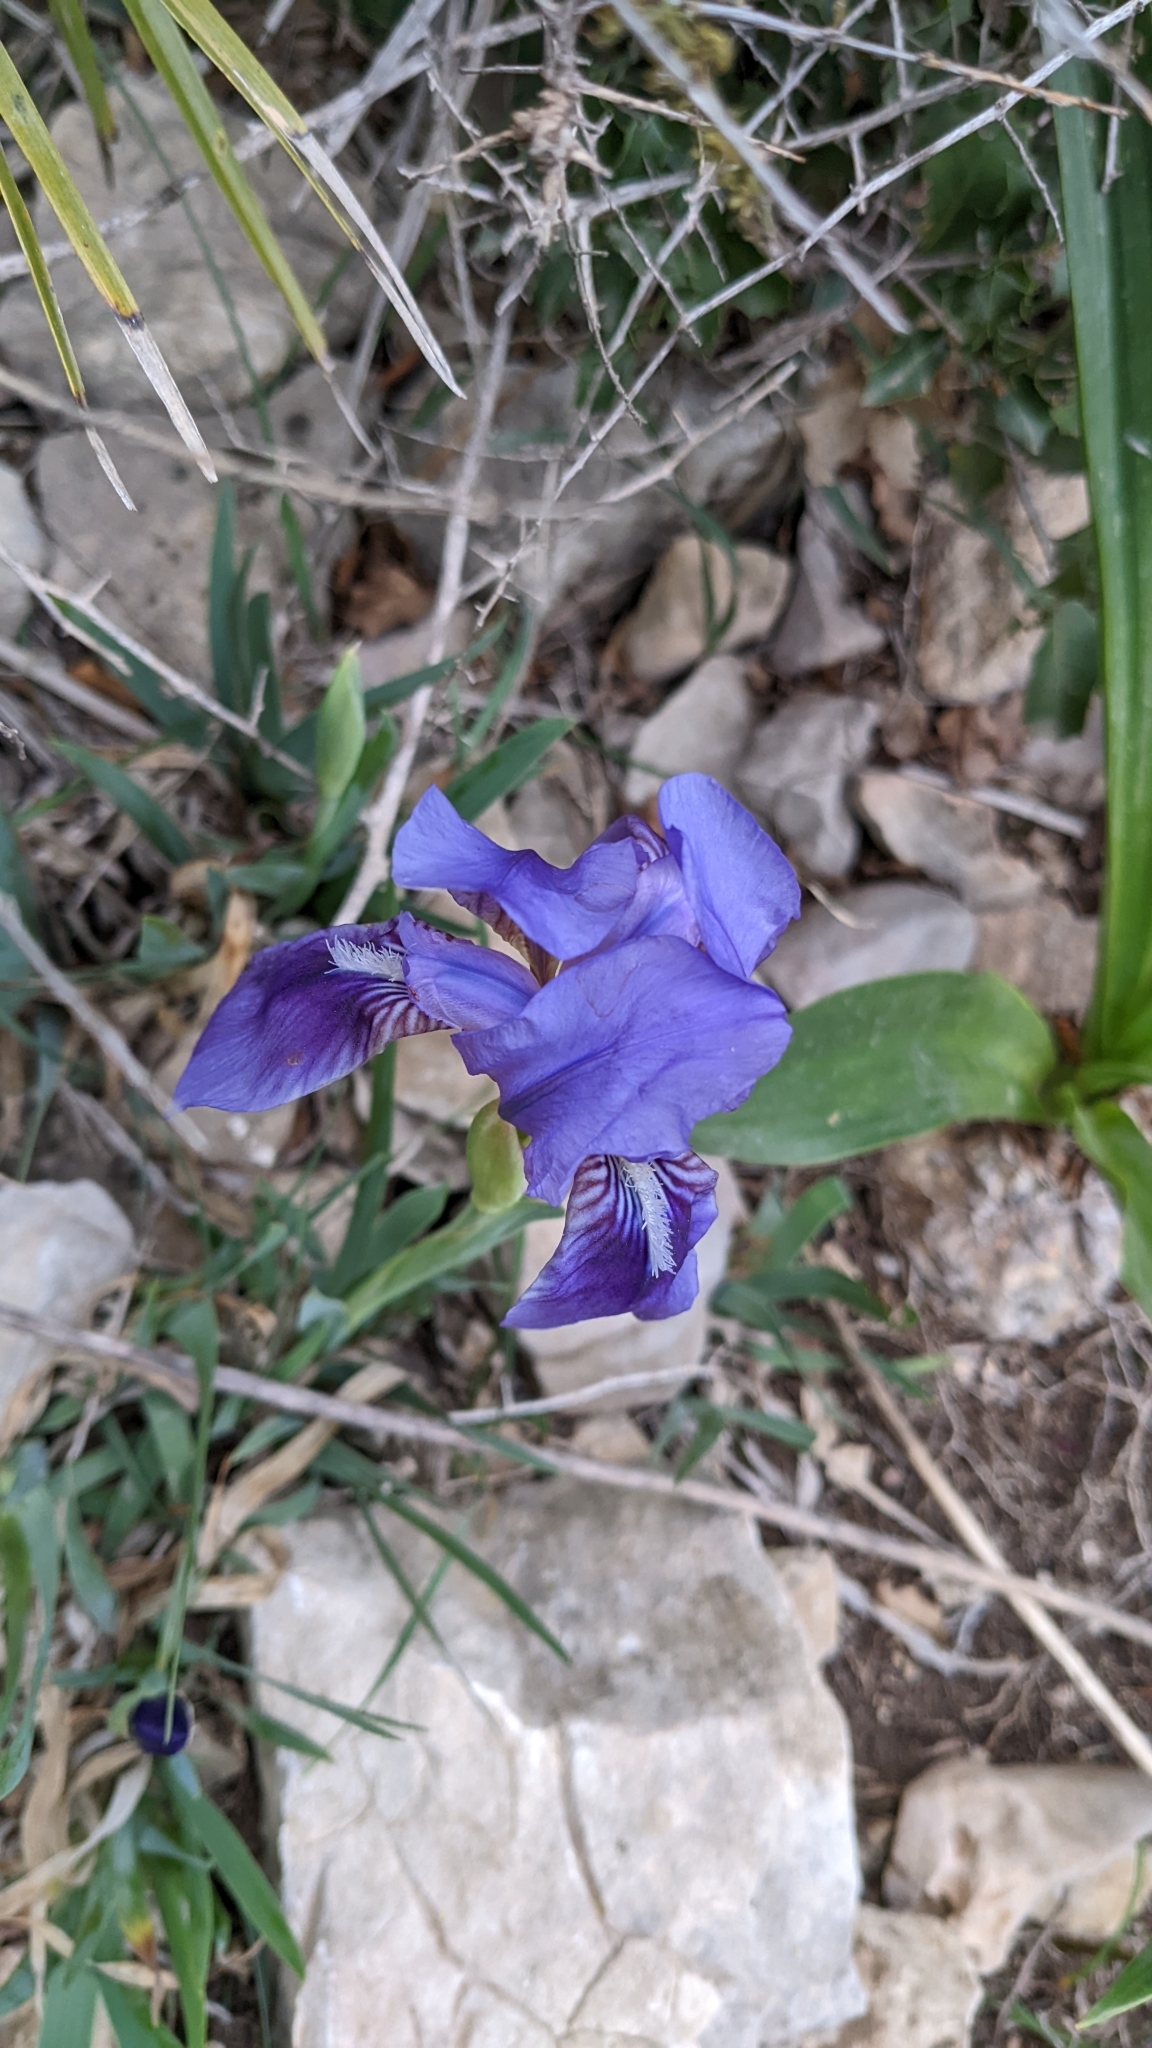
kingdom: Plantae
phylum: Tracheophyta
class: Liliopsida
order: Asparagales
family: Iridaceae
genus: Iris
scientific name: Iris lutescens
